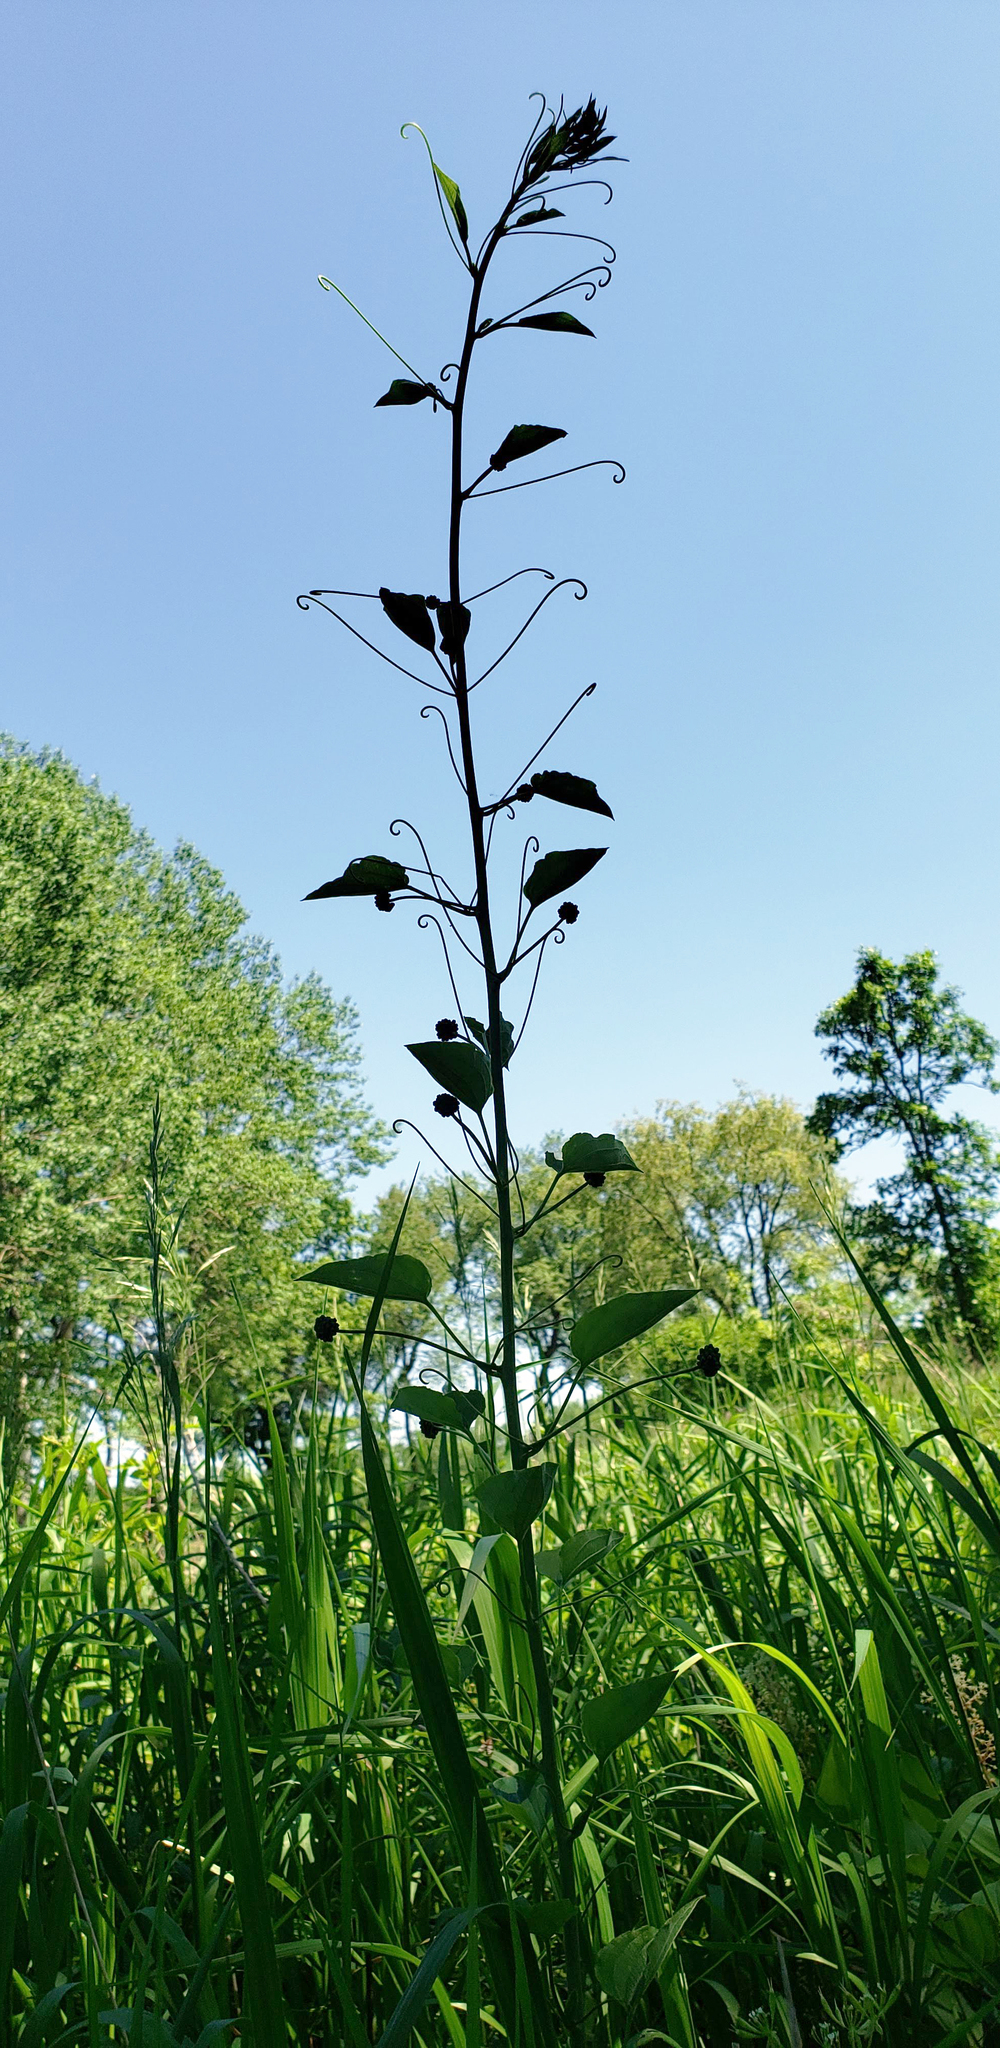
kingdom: Plantae
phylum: Tracheophyta
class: Liliopsida
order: Liliales
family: Smilacaceae
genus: Smilax
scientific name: Smilax lasioneura
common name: Blue ridge carrionflower
